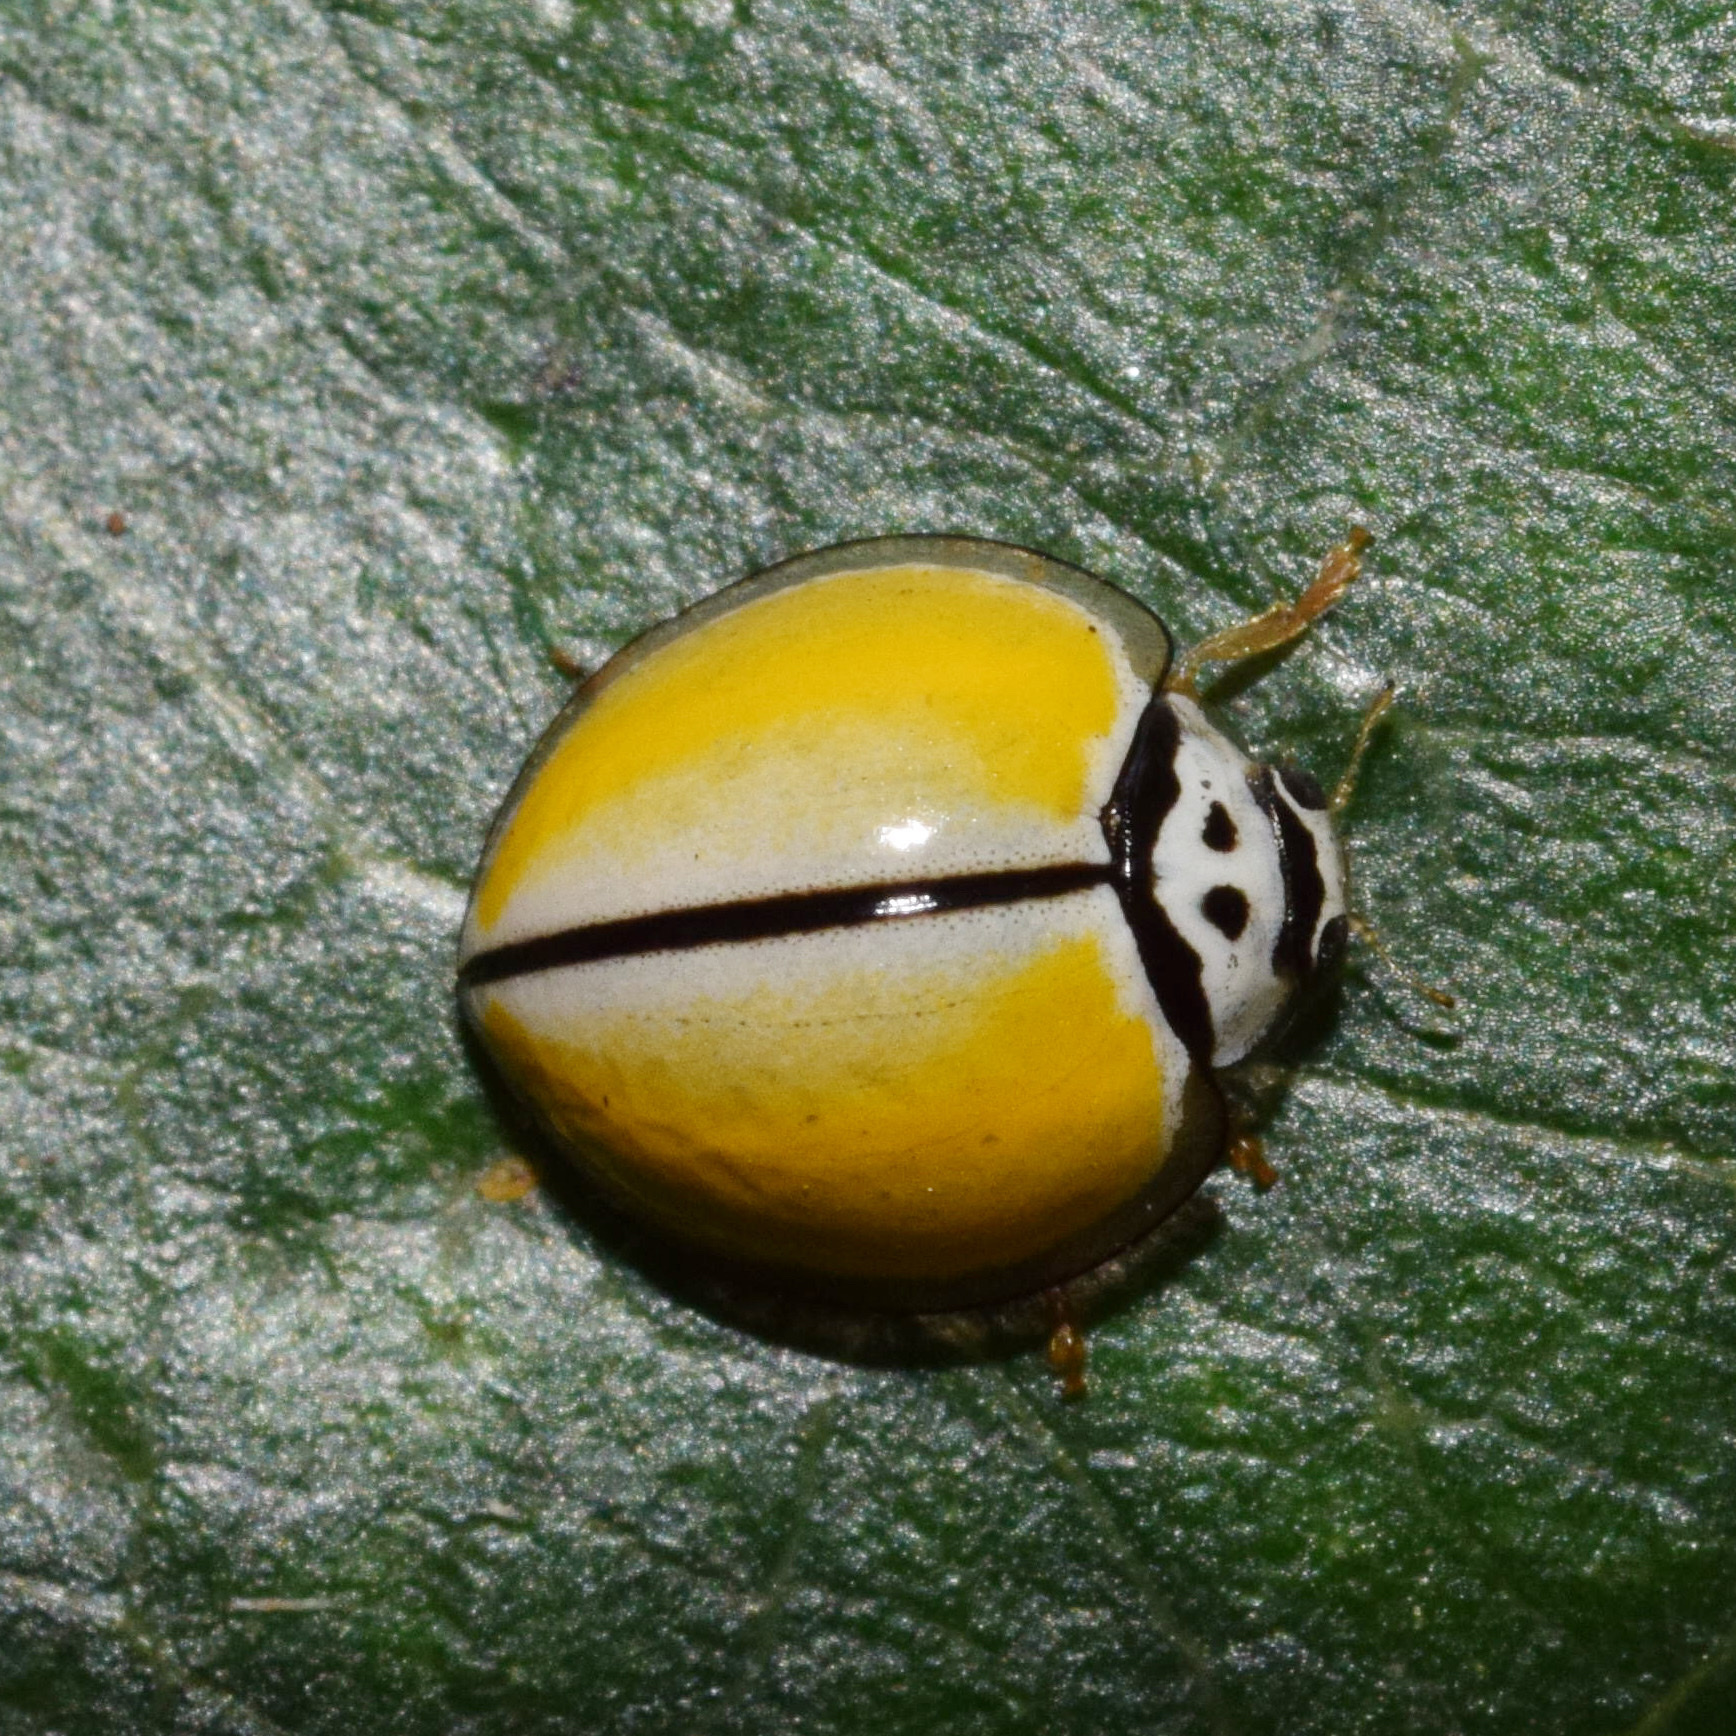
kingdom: Animalia
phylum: Arthropoda
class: Insecta
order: Coleoptera
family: Coccinellidae
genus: Oenopia
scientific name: Oenopia
